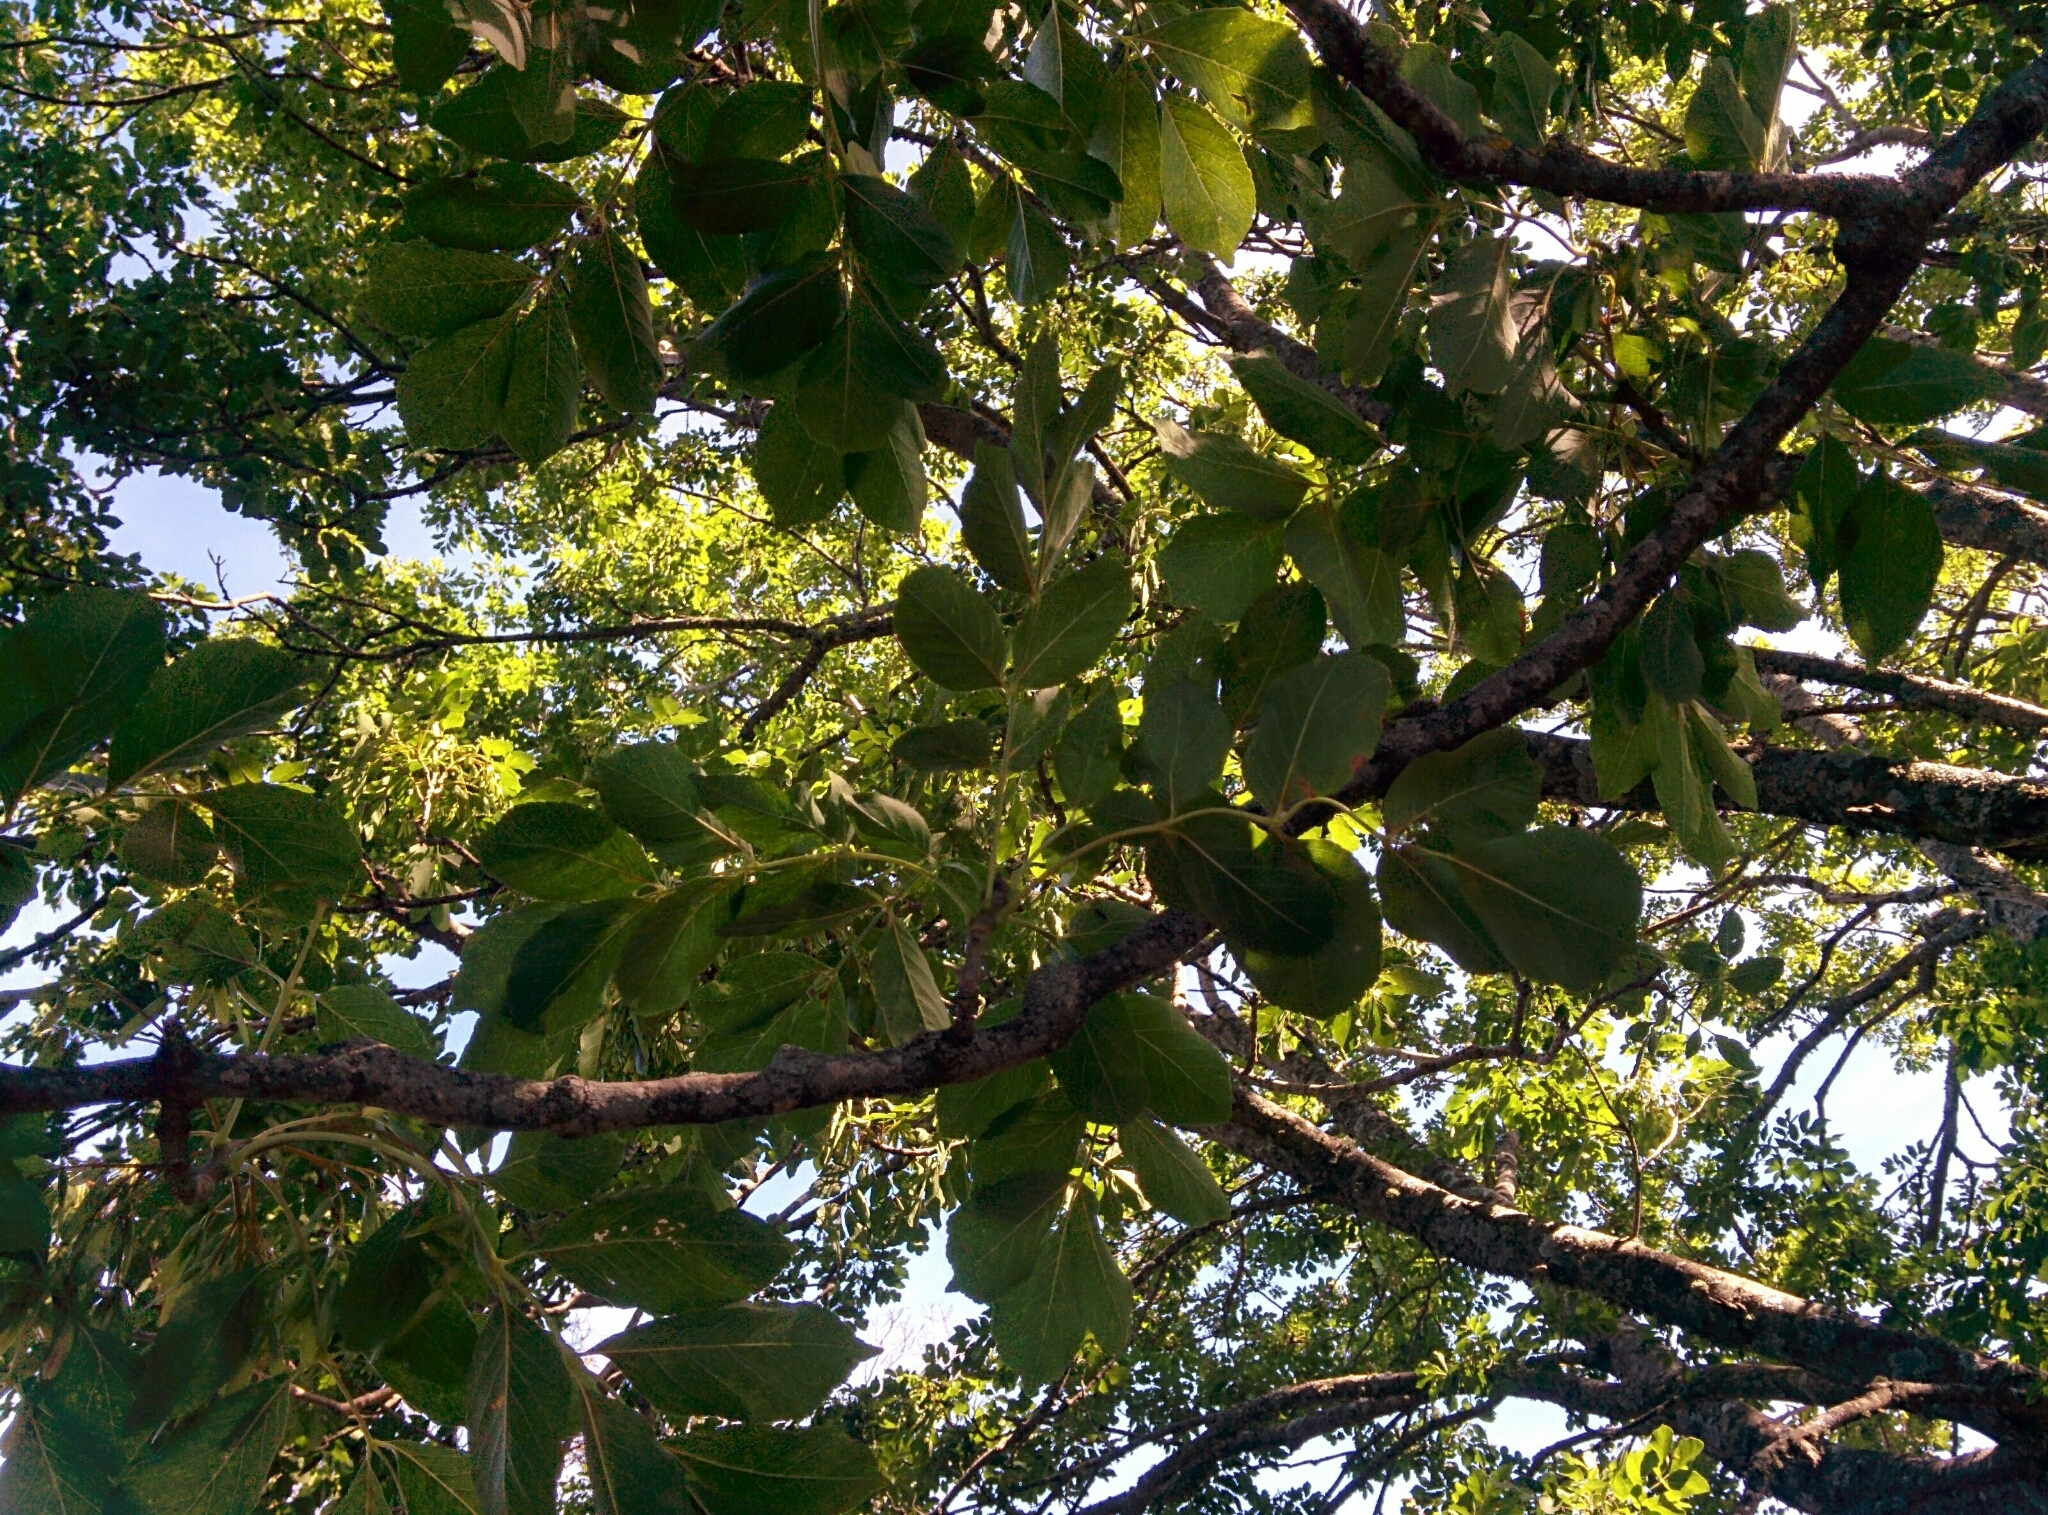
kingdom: Plantae
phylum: Tracheophyta
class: Magnoliopsida
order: Lamiales
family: Oleaceae
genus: Fraxinus
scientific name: Fraxinus ornus
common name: Manna ash
